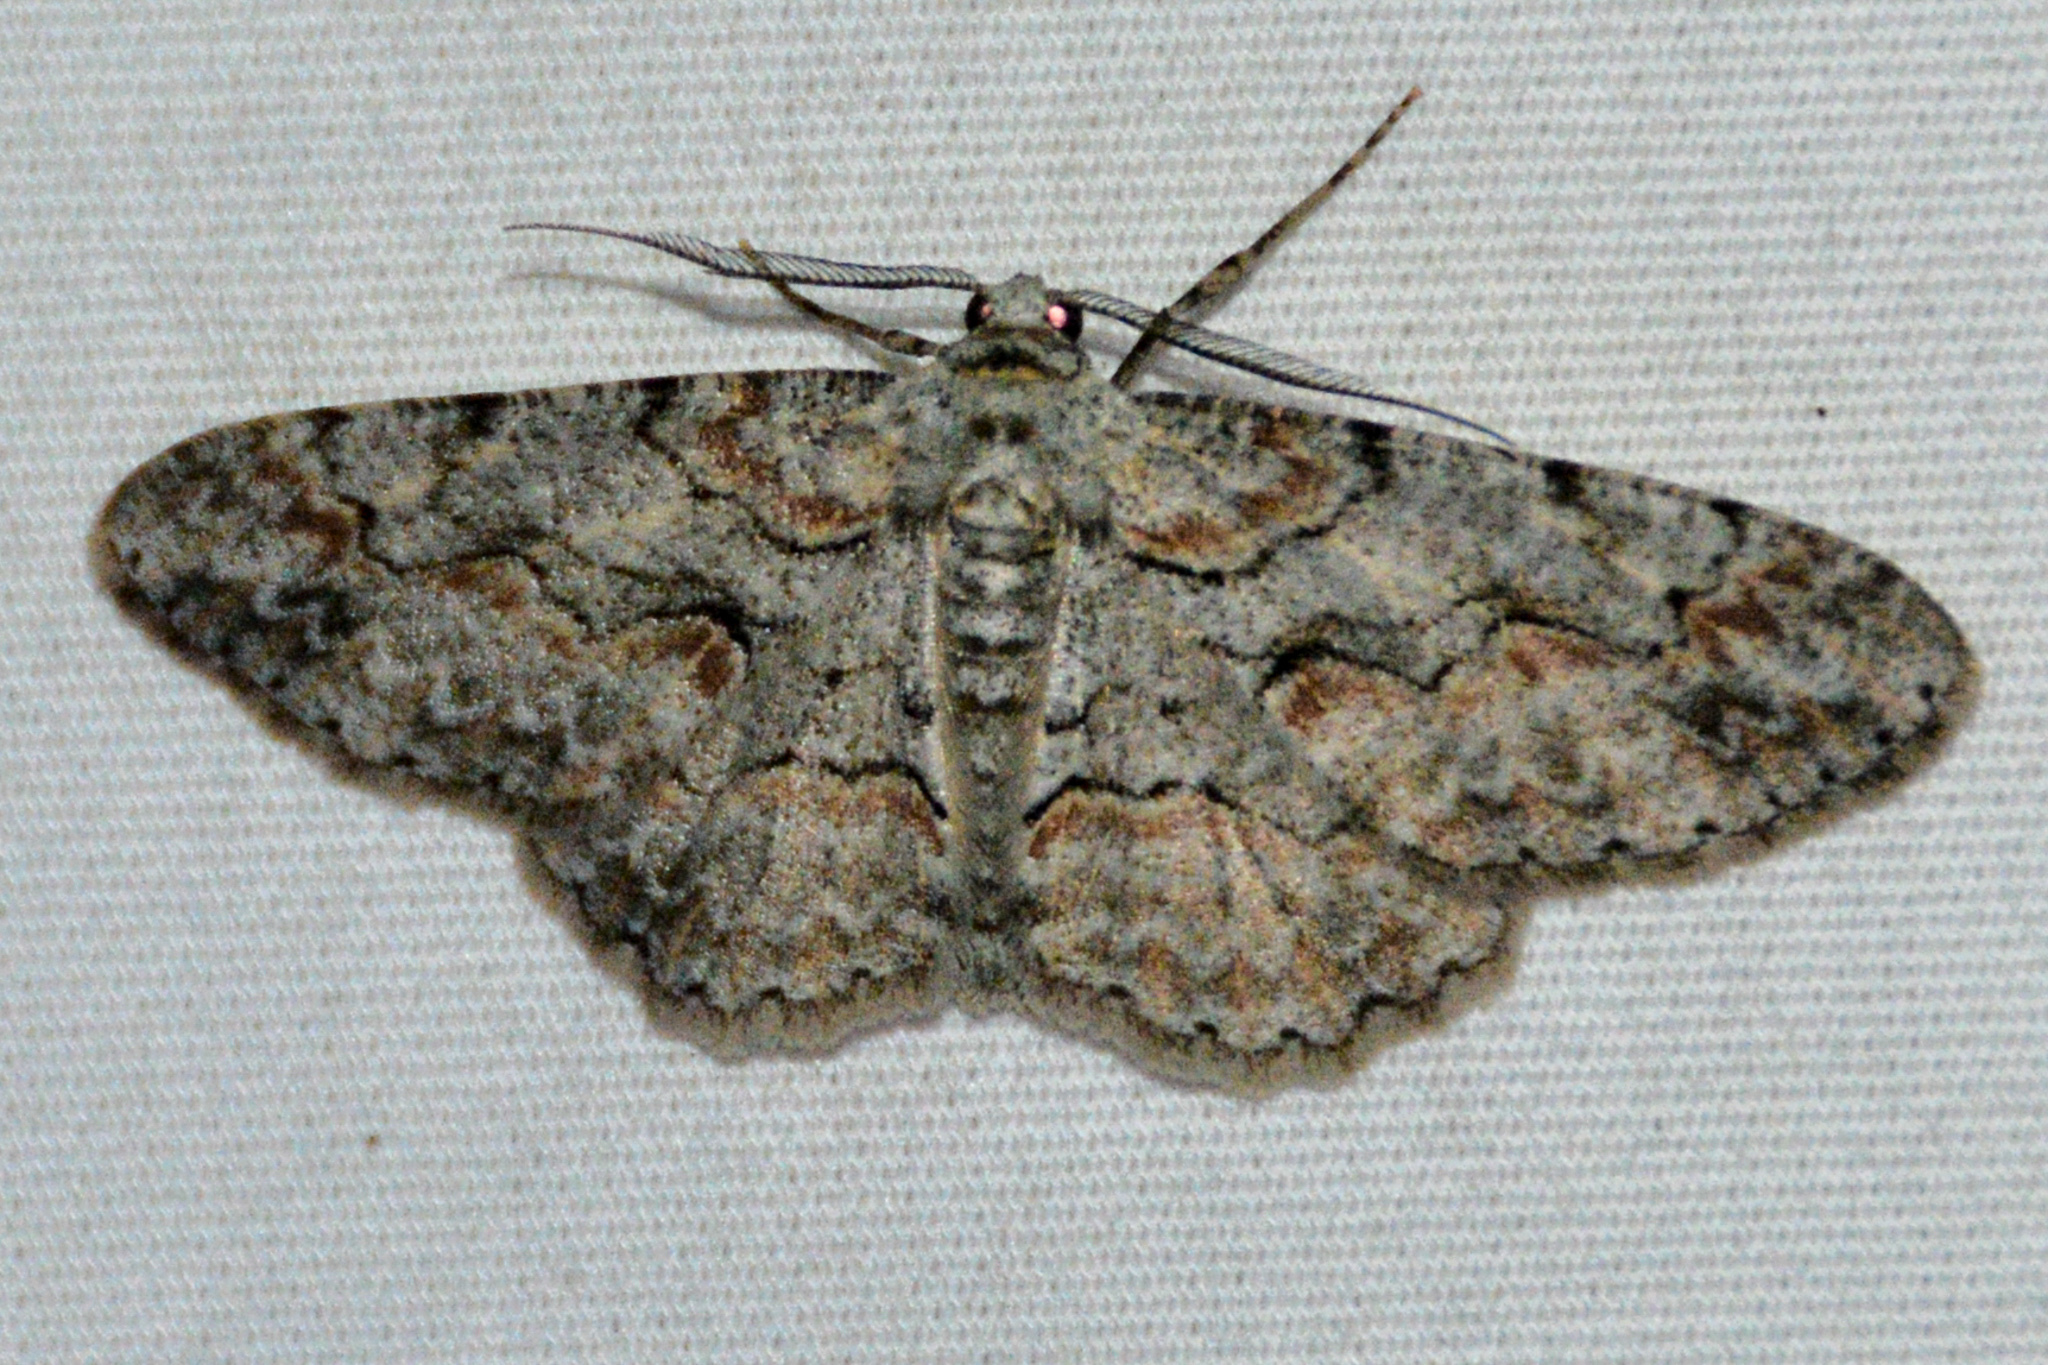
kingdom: Animalia
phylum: Arthropoda
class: Insecta
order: Lepidoptera
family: Geometridae
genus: Iridopsis
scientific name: Iridopsis defectaria
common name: Brown-shaded gray
